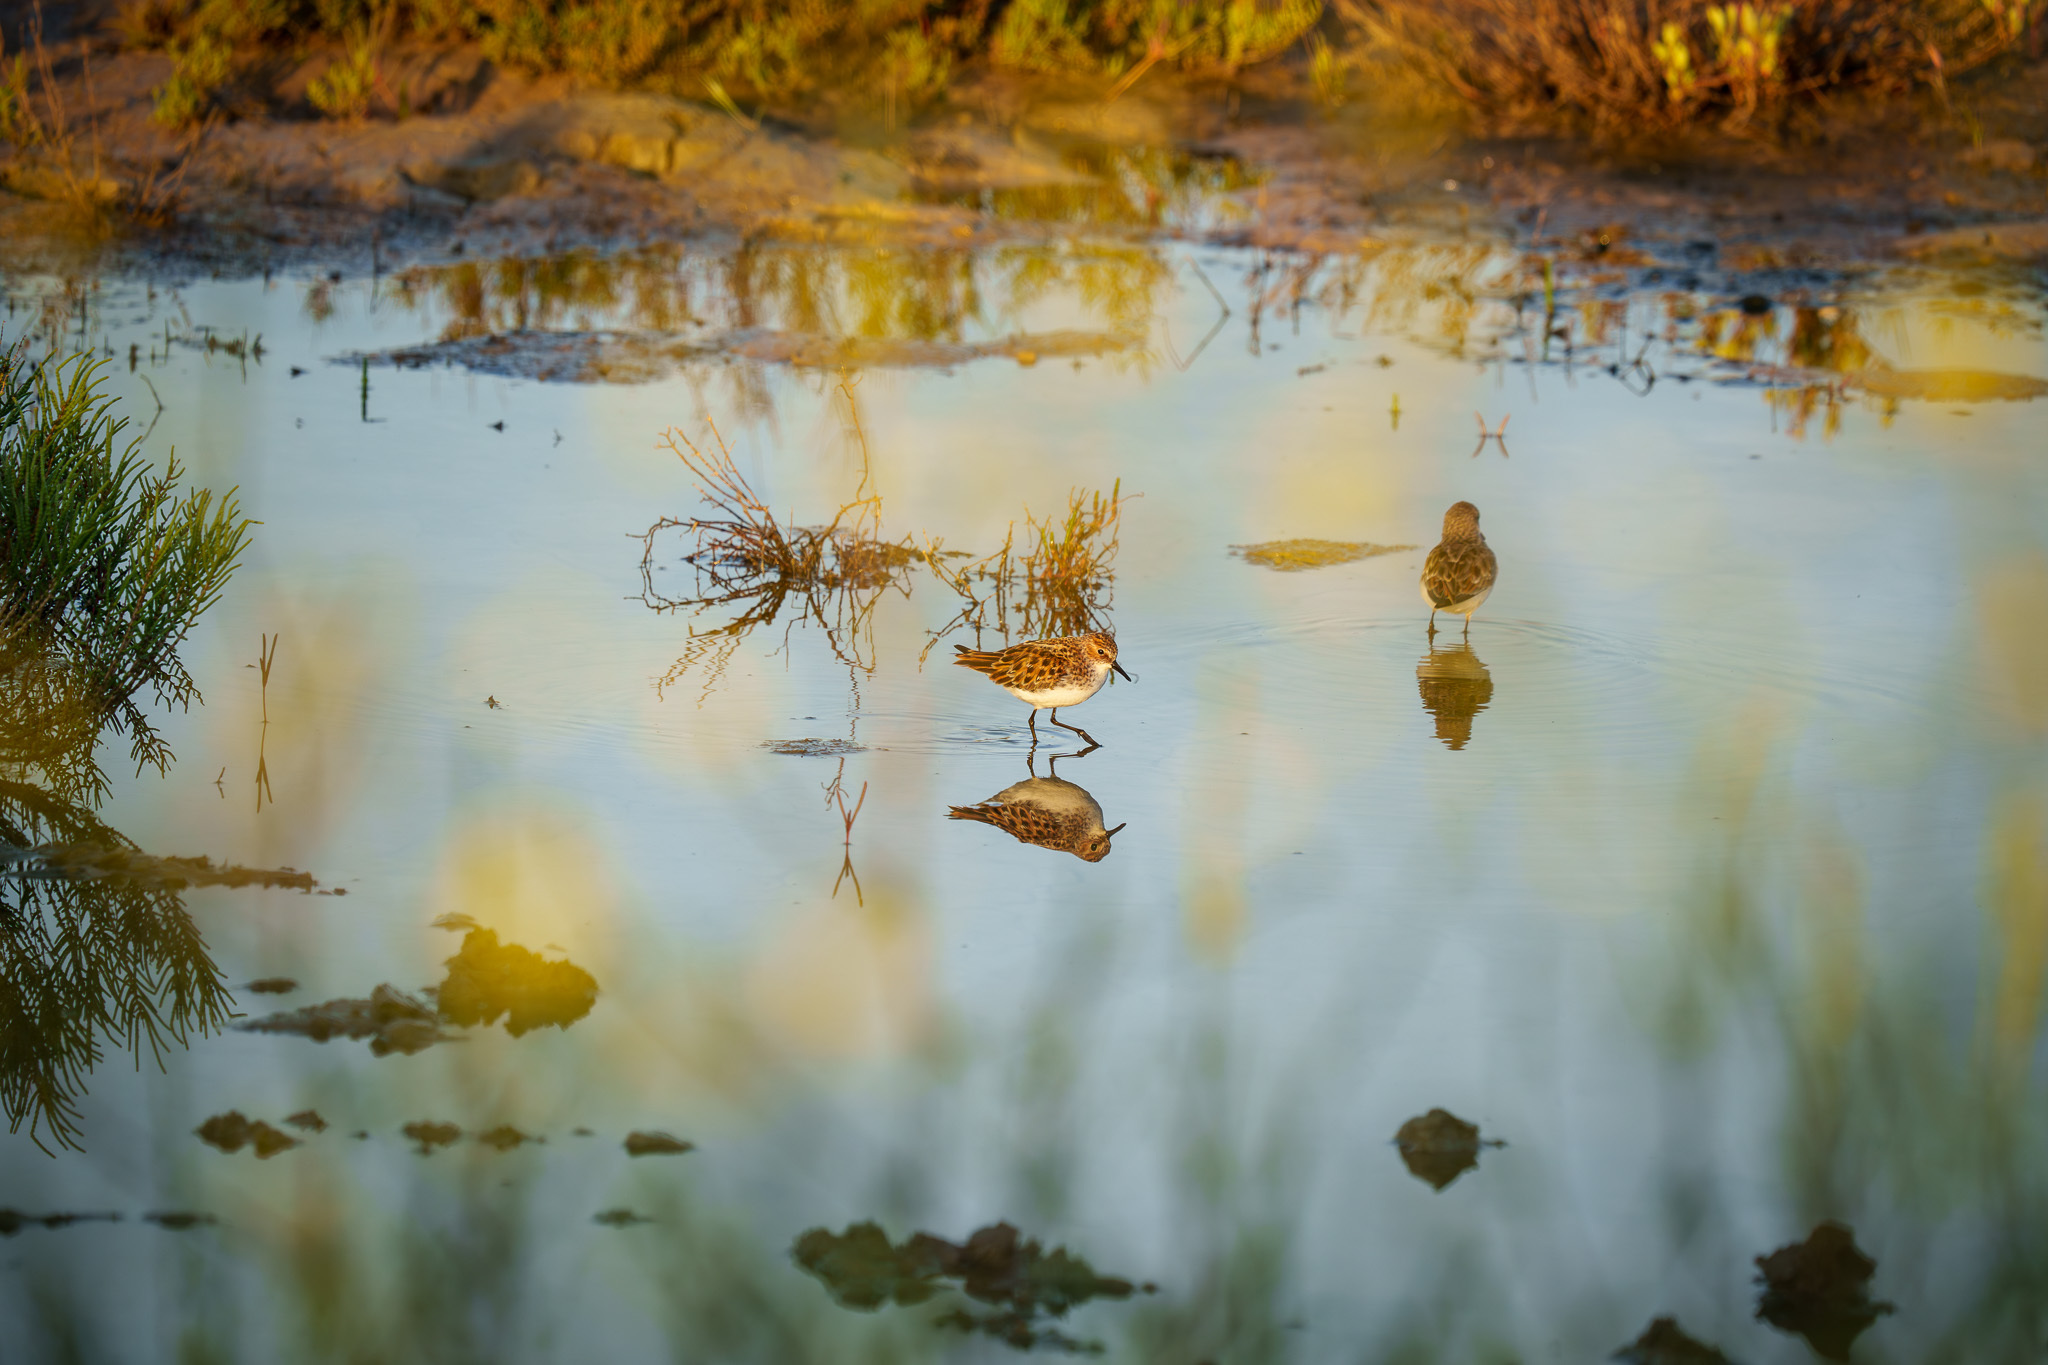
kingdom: Animalia
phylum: Chordata
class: Aves
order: Charadriiformes
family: Scolopacidae
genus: Calidris
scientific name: Calidris minuta
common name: Little stint
